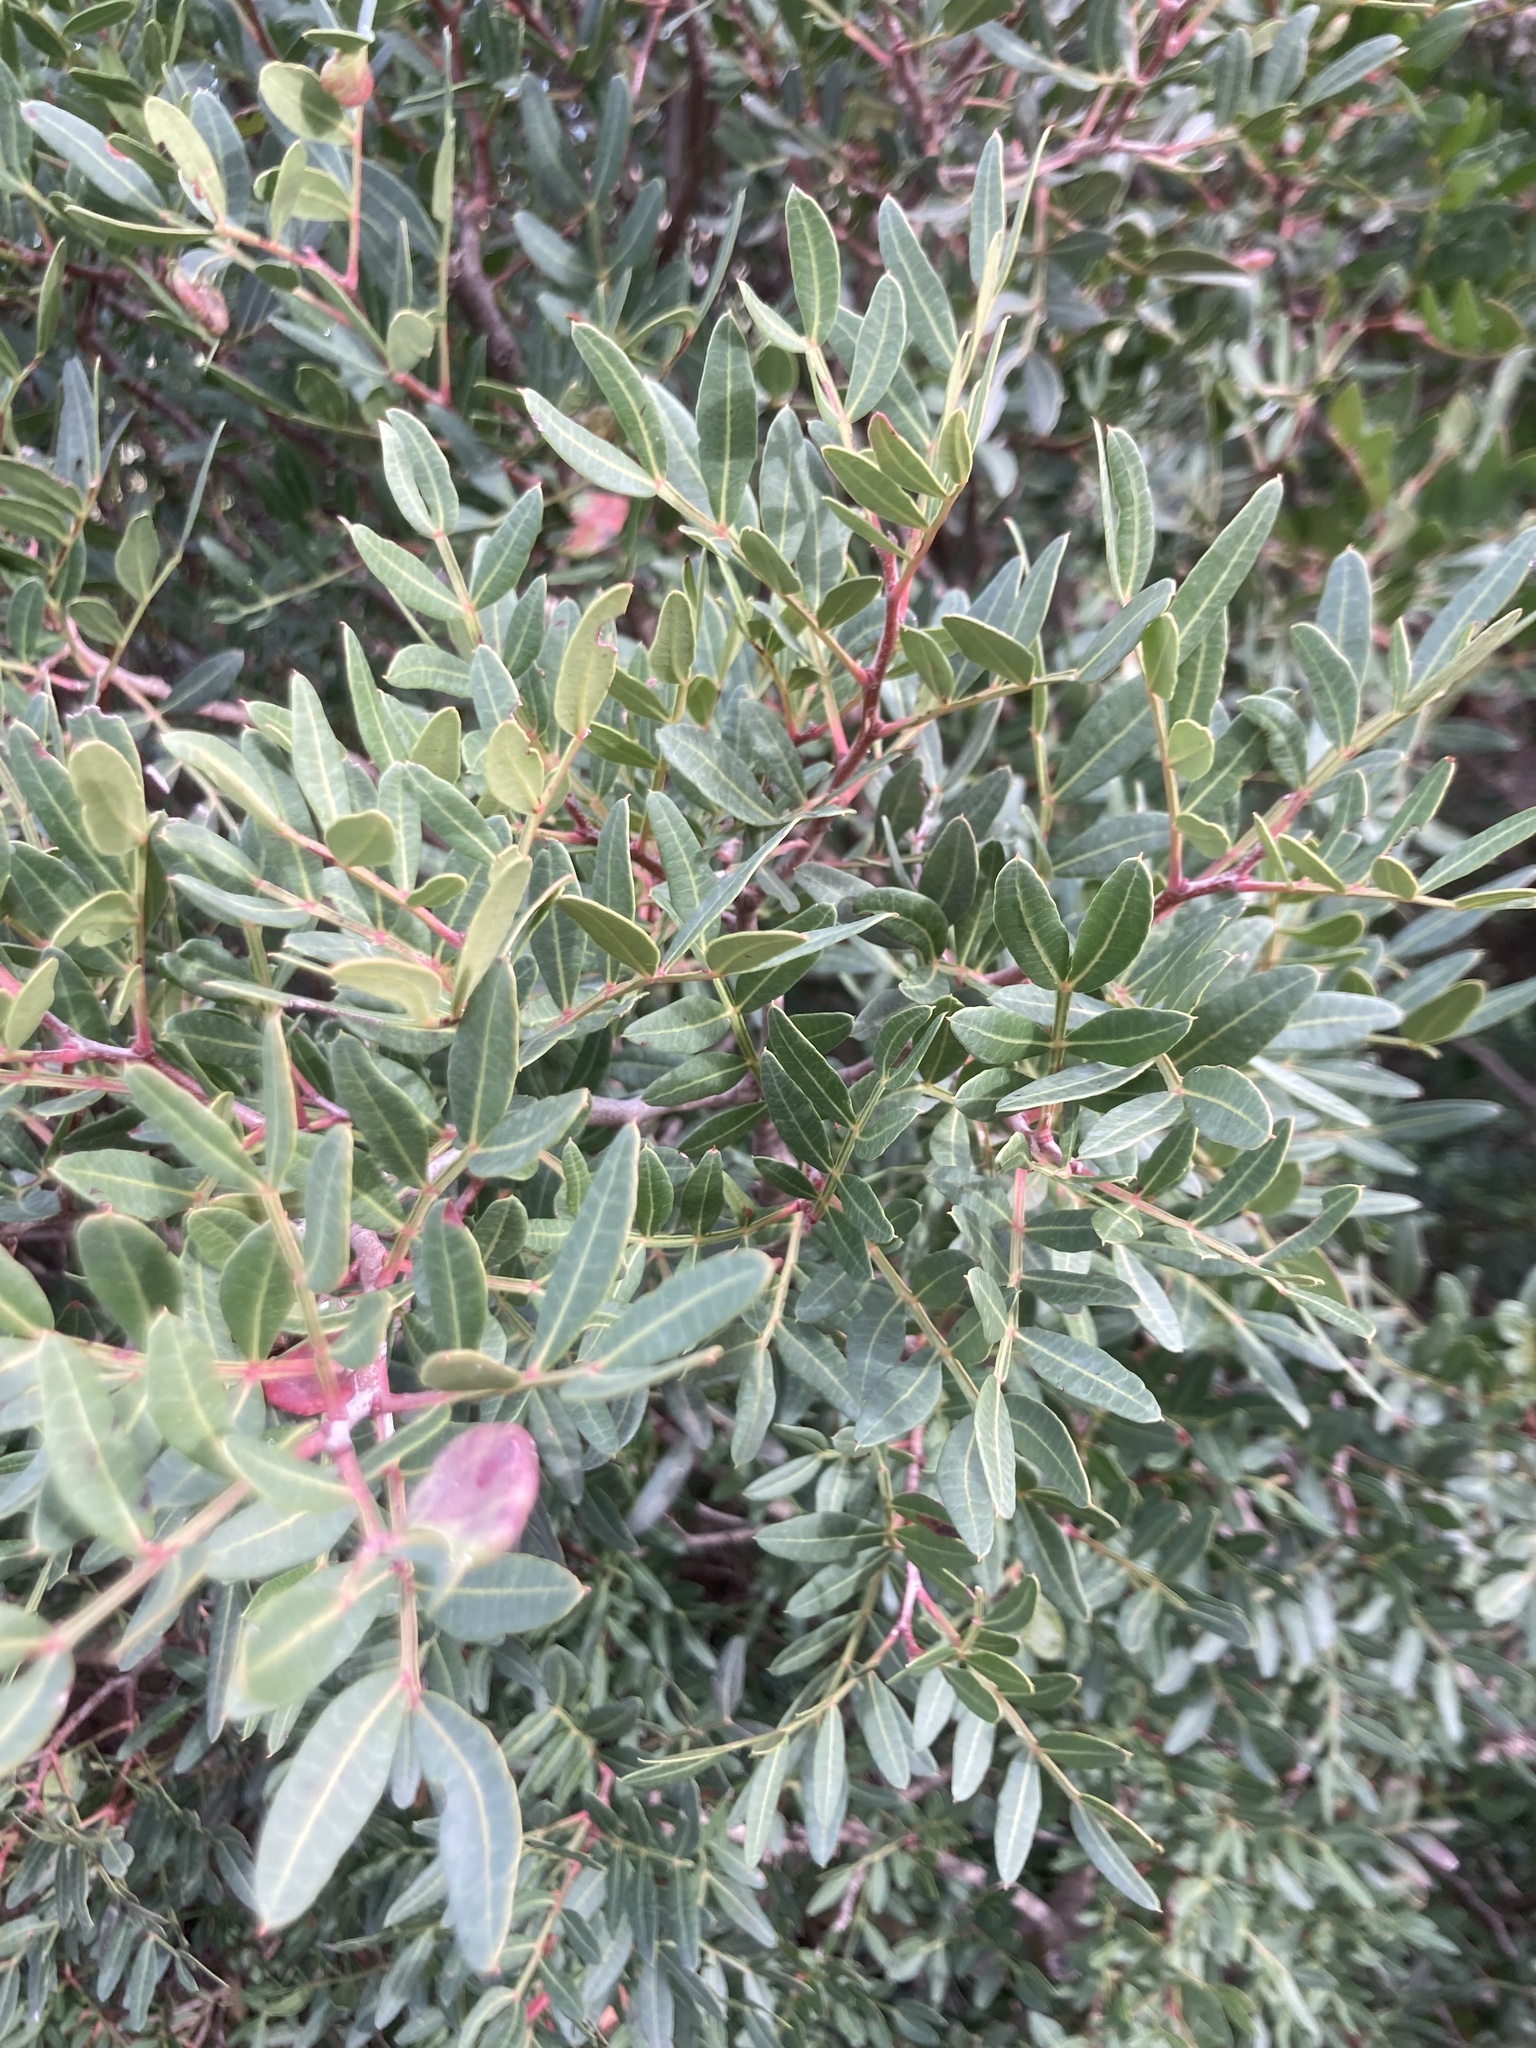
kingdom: Plantae
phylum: Tracheophyta
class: Magnoliopsida
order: Sapindales
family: Anacardiaceae
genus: Pistacia
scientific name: Pistacia lentiscus
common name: Lentisk
